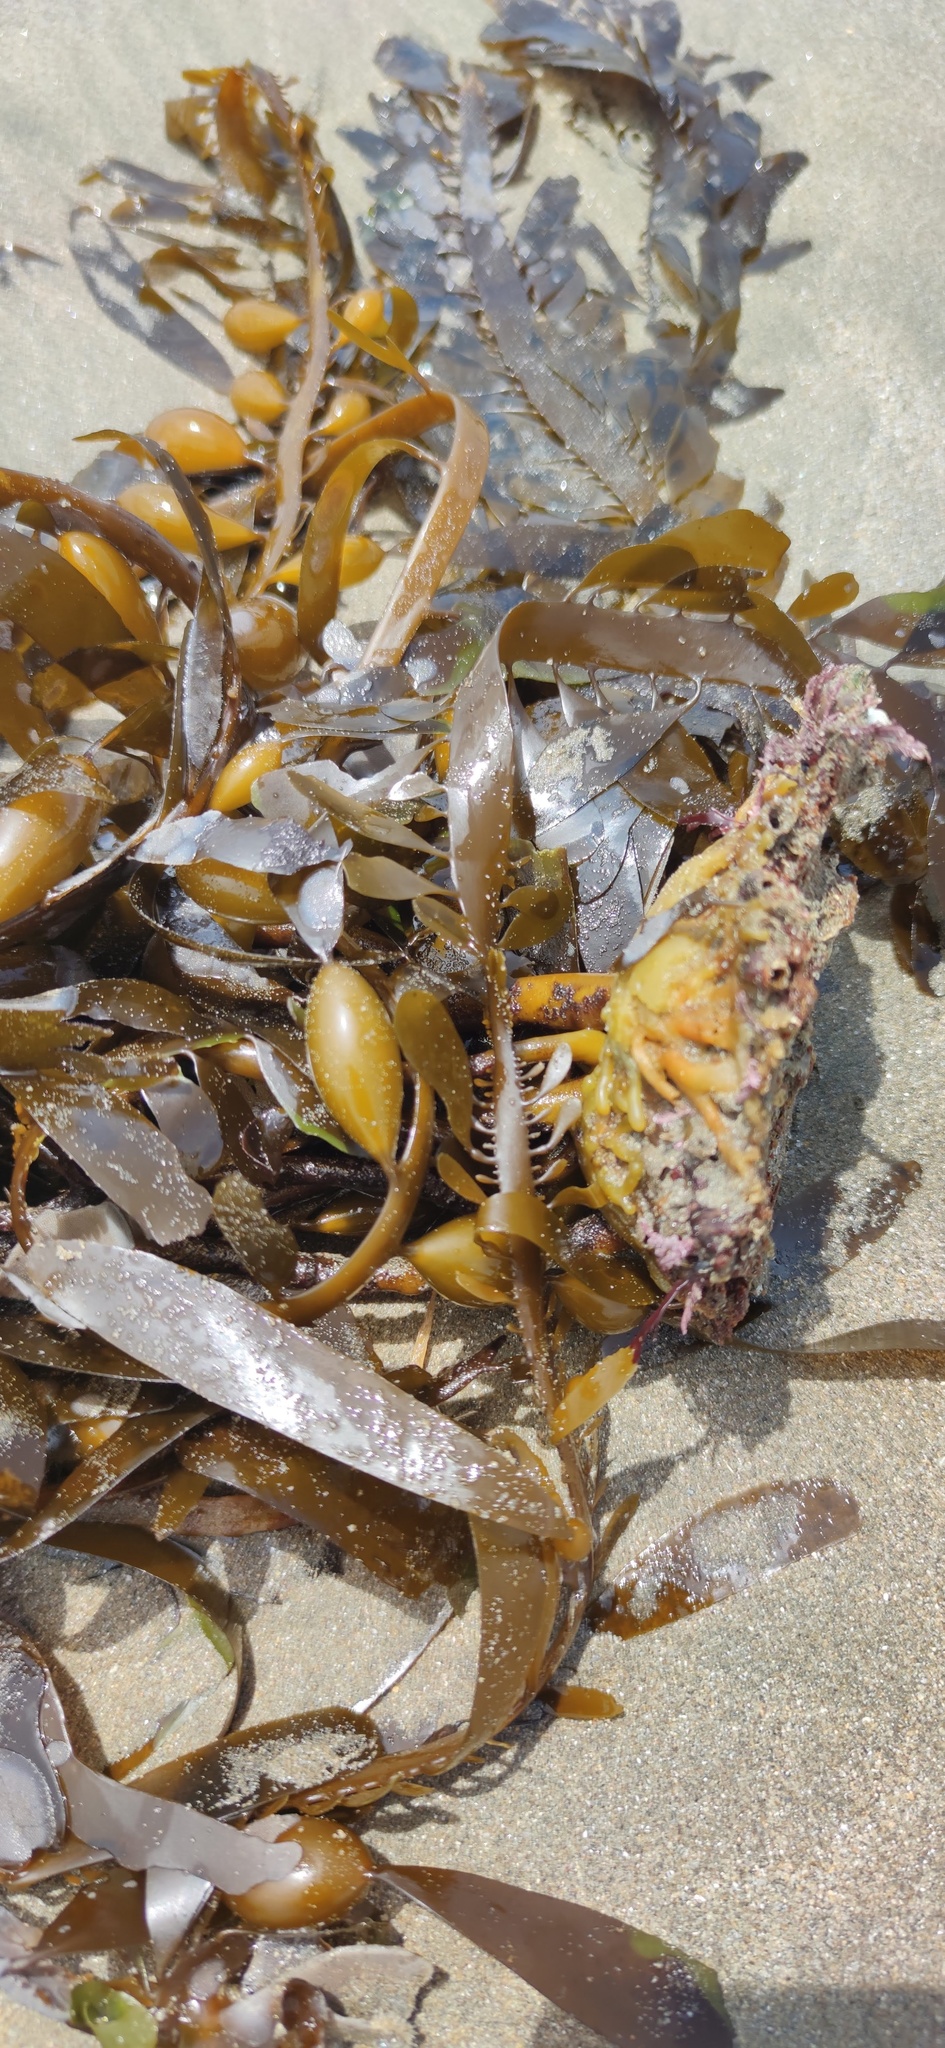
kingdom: Chromista
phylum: Ochrophyta
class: Phaeophyceae
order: Laminariales
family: Lessoniaceae
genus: Egregia
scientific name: Egregia menziesii
